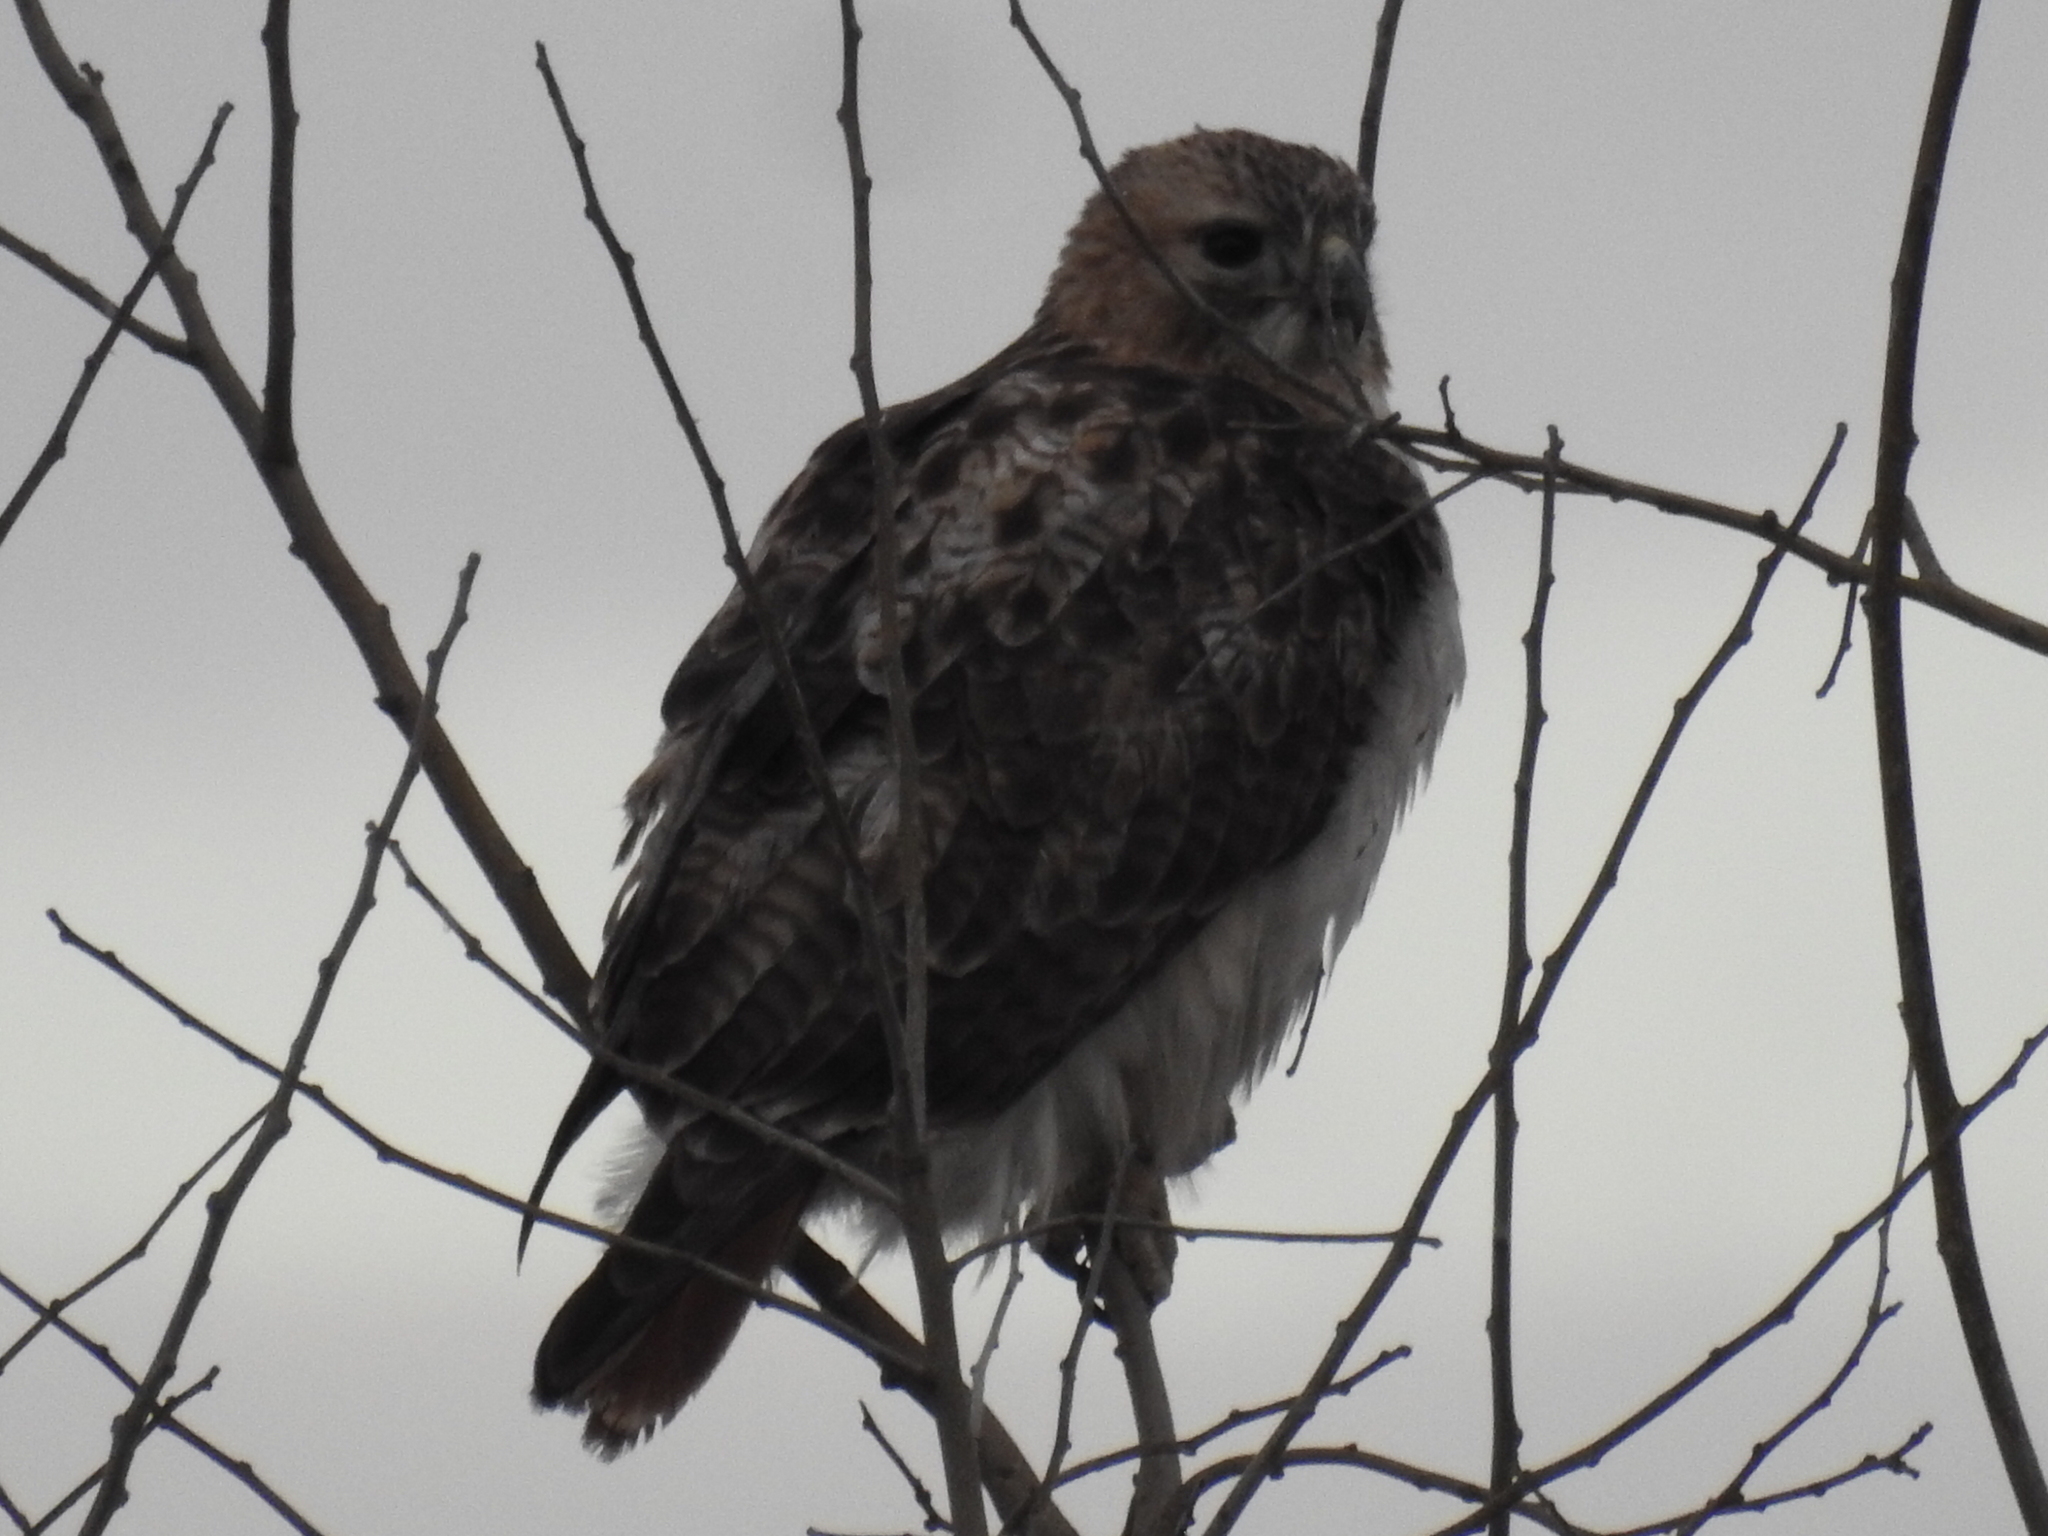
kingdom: Animalia
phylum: Chordata
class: Aves
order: Accipitriformes
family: Accipitridae
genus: Buteo
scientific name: Buteo jamaicensis
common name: Red-tailed hawk
